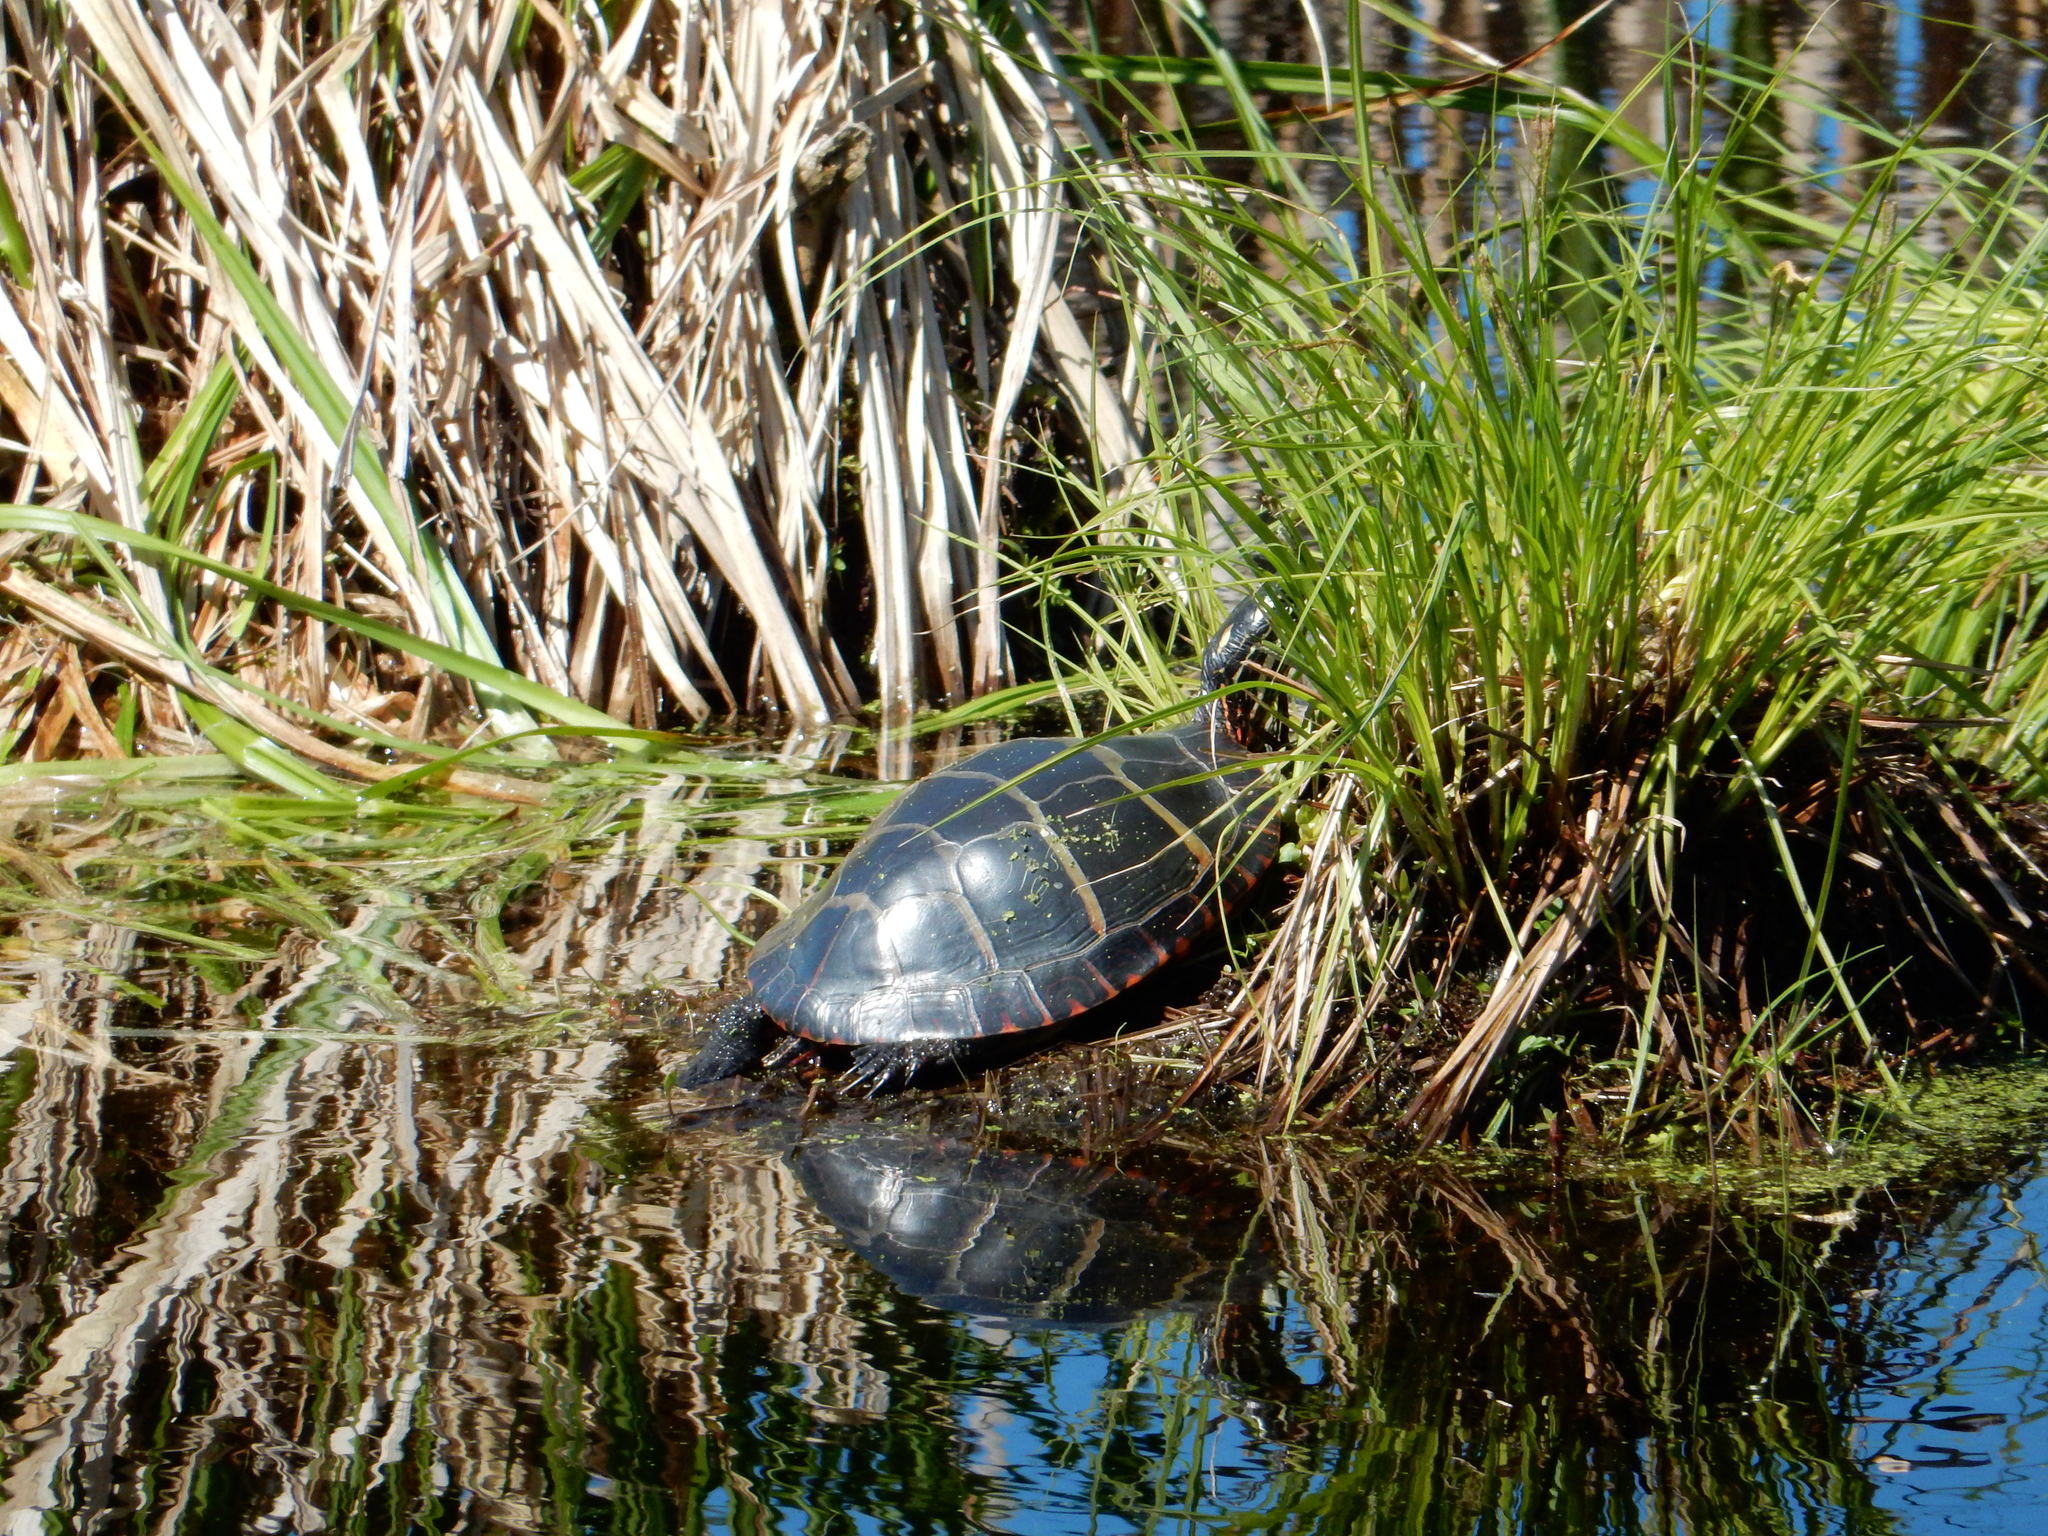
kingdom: Animalia
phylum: Chordata
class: Testudines
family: Emydidae
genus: Chrysemys
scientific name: Chrysemys picta
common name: Painted turtle
